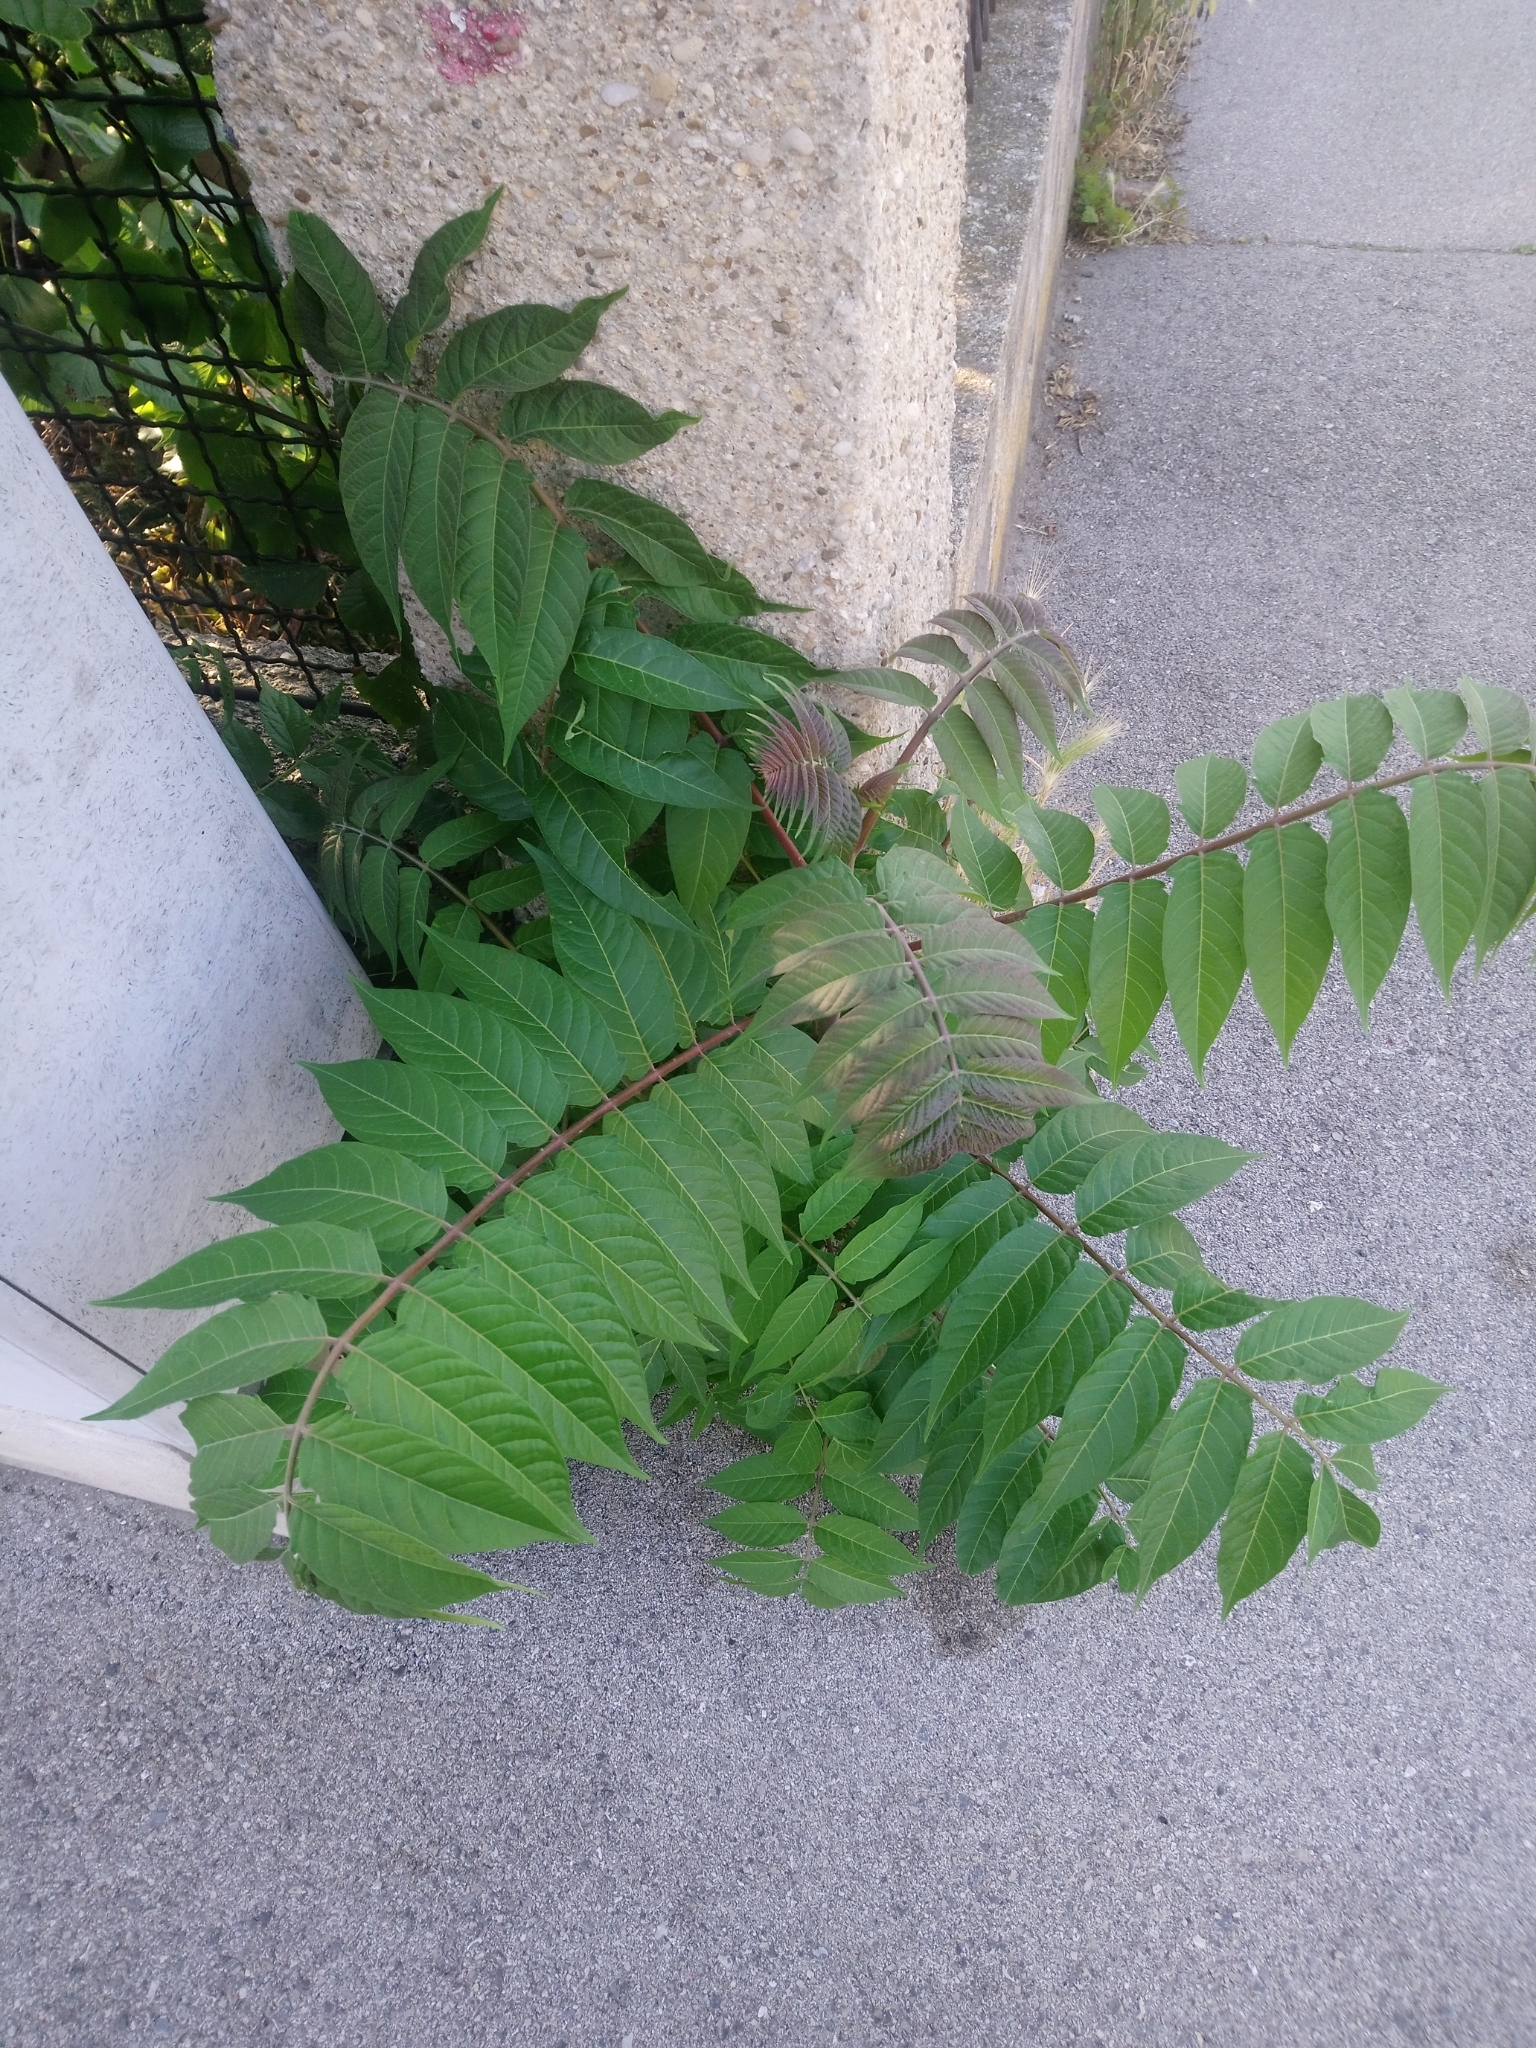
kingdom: Plantae
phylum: Tracheophyta
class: Magnoliopsida
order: Sapindales
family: Simaroubaceae
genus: Ailanthus
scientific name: Ailanthus altissima
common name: Tree-of-heaven
